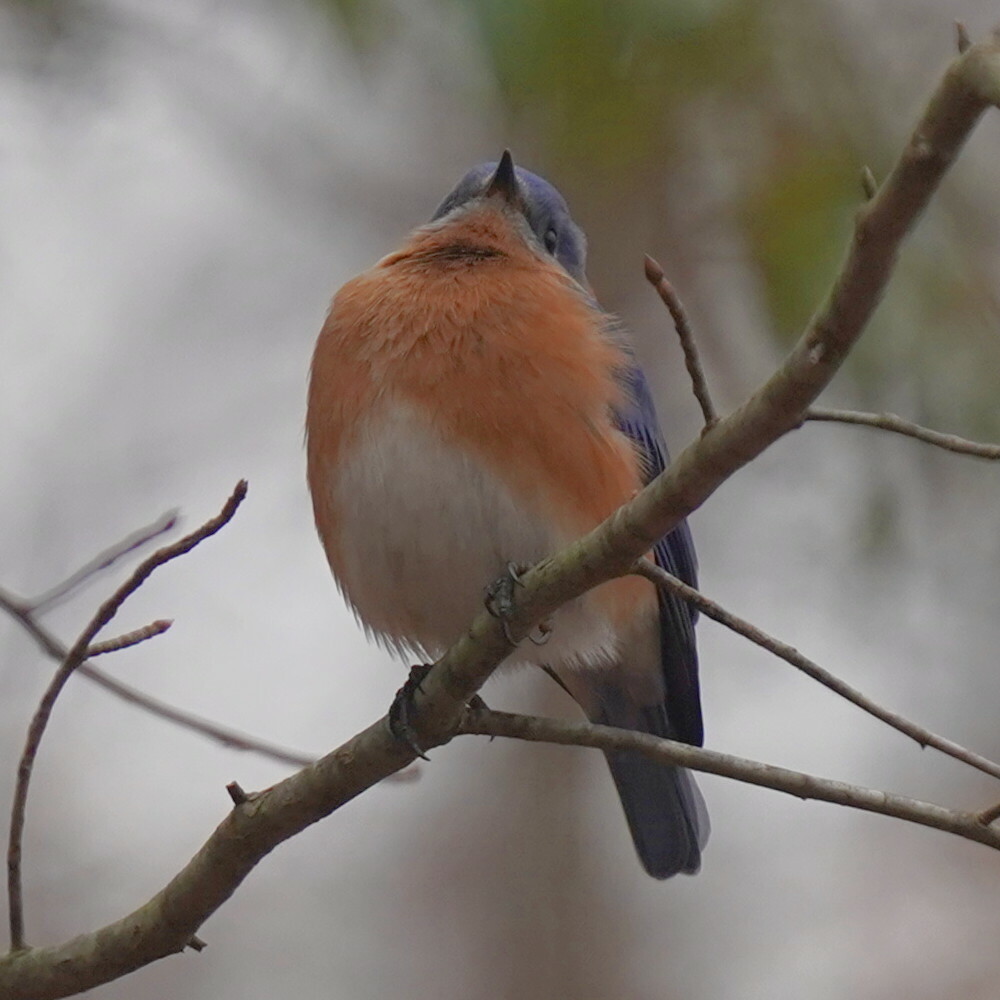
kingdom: Animalia
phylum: Chordata
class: Aves
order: Passeriformes
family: Turdidae
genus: Sialia
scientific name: Sialia sialis
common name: Eastern bluebird
